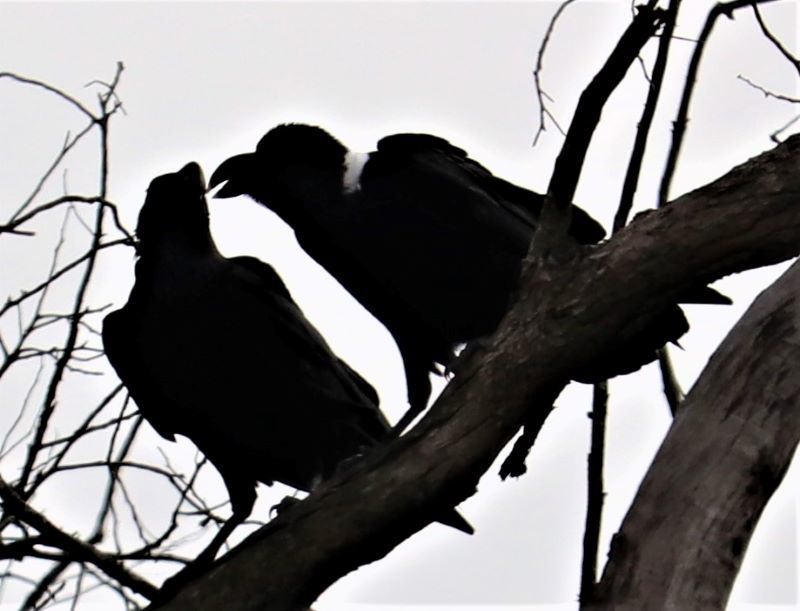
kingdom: Animalia
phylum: Chordata
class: Aves
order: Passeriformes
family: Corvidae
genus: Corvus
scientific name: Corvus albicollis
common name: White-necked raven
